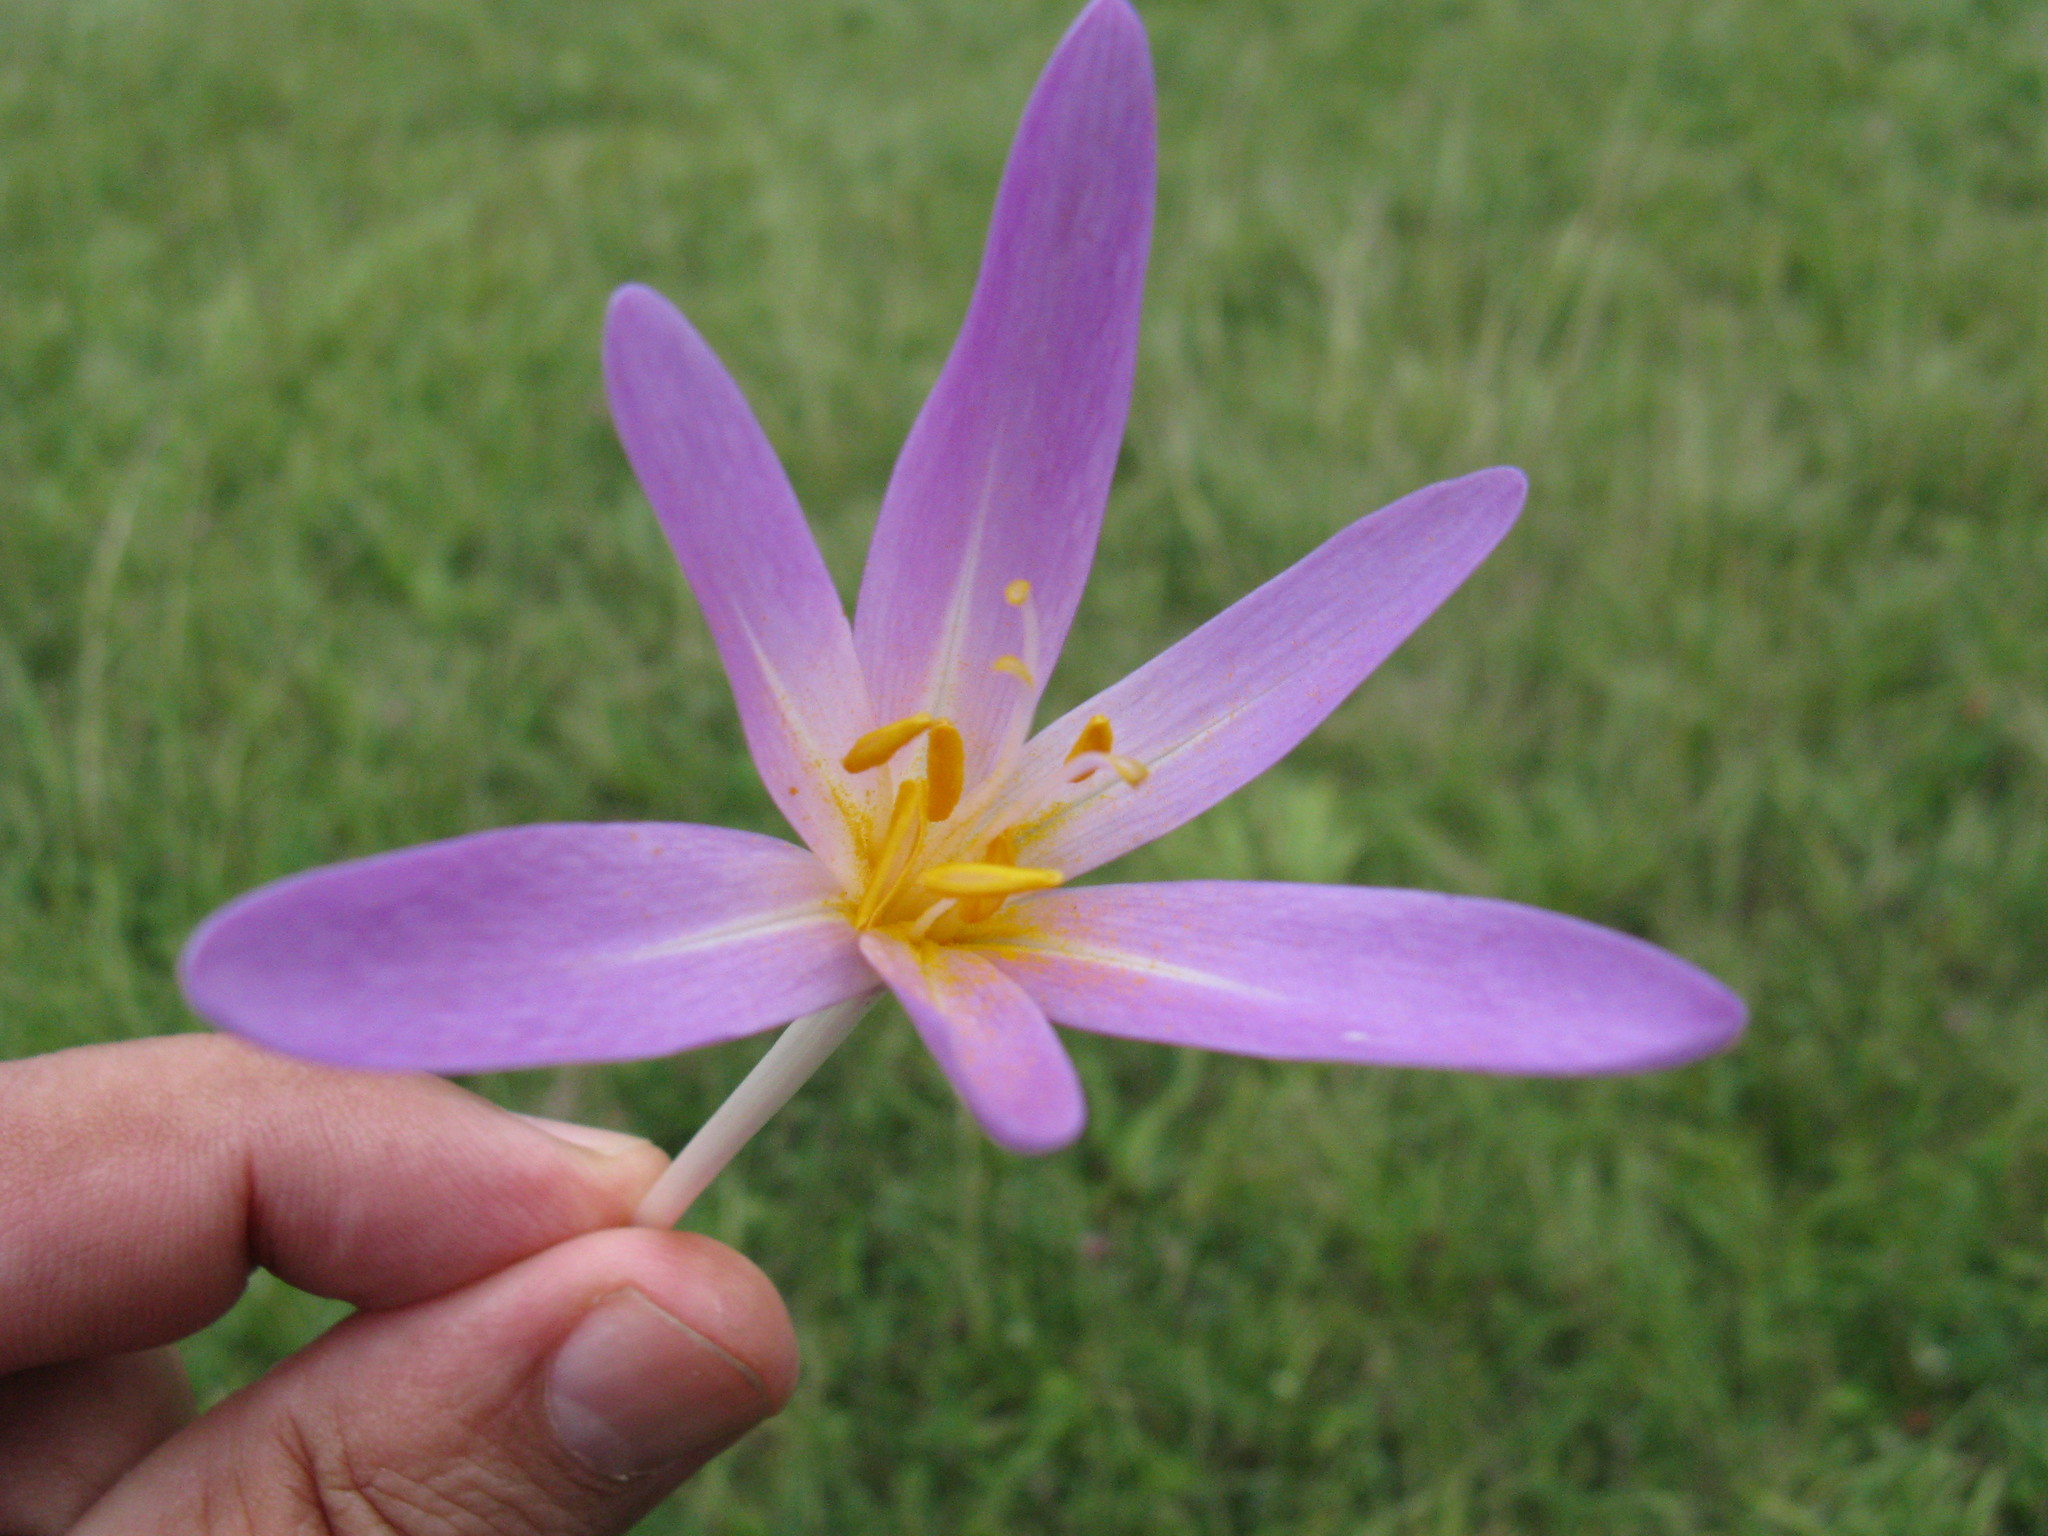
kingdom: Plantae
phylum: Tracheophyta
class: Liliopsida
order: Liliales
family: Colchicaceae
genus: Colchicum
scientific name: Colchicum autumnale
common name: Autumn crocus
